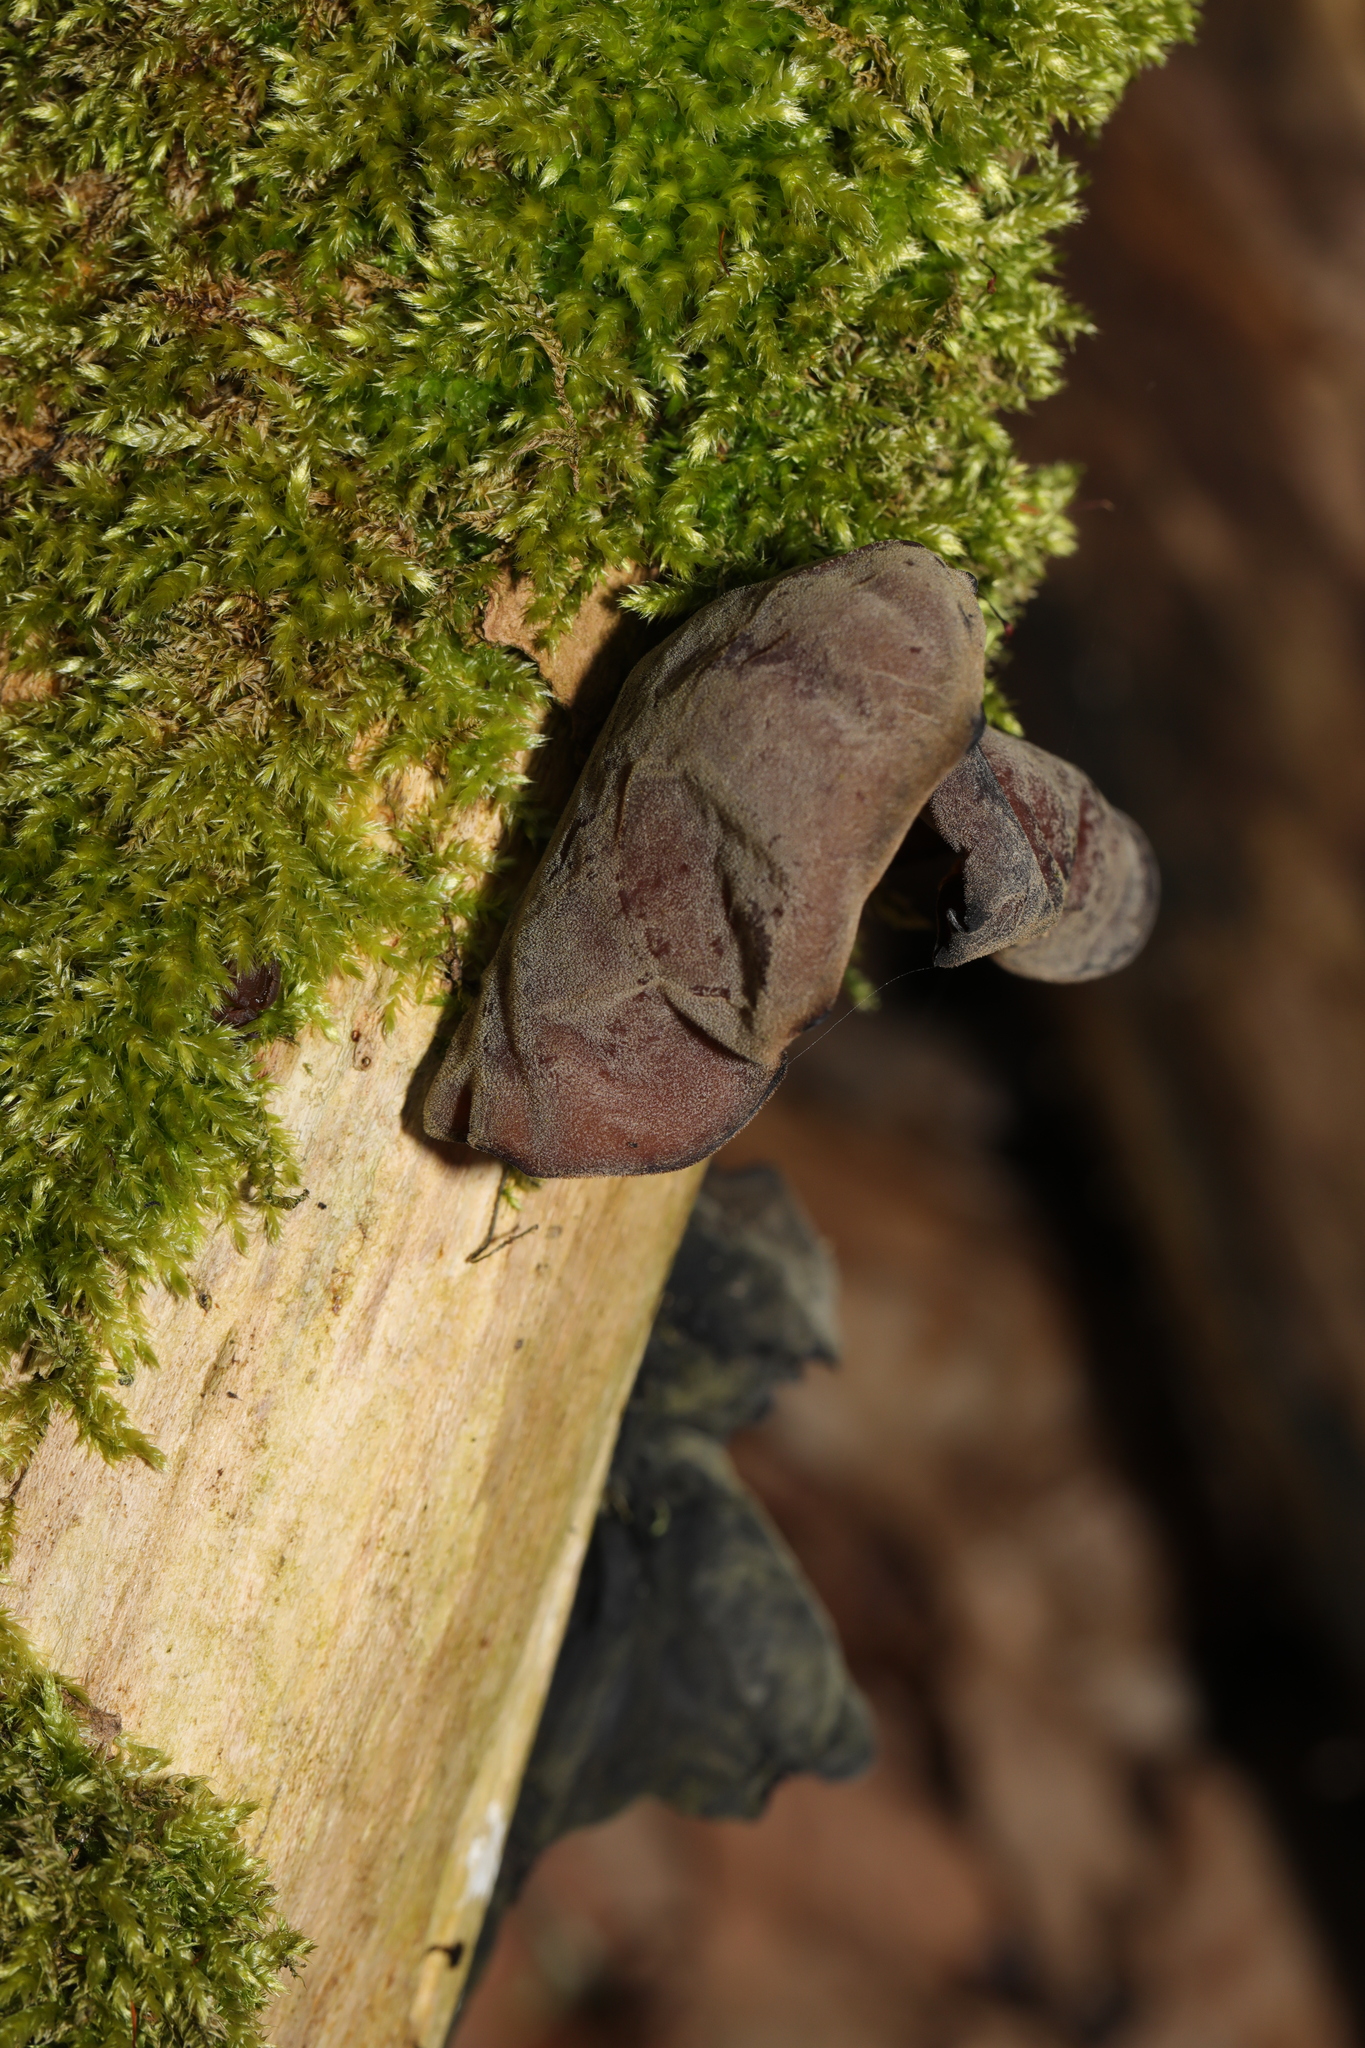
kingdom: Fungi
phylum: Basidiomycota
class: Agaricomycetes
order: Auriculariales
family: Auriculariaceae
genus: Auricularia
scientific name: Auricularia auricula-judae
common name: Jelly ear
